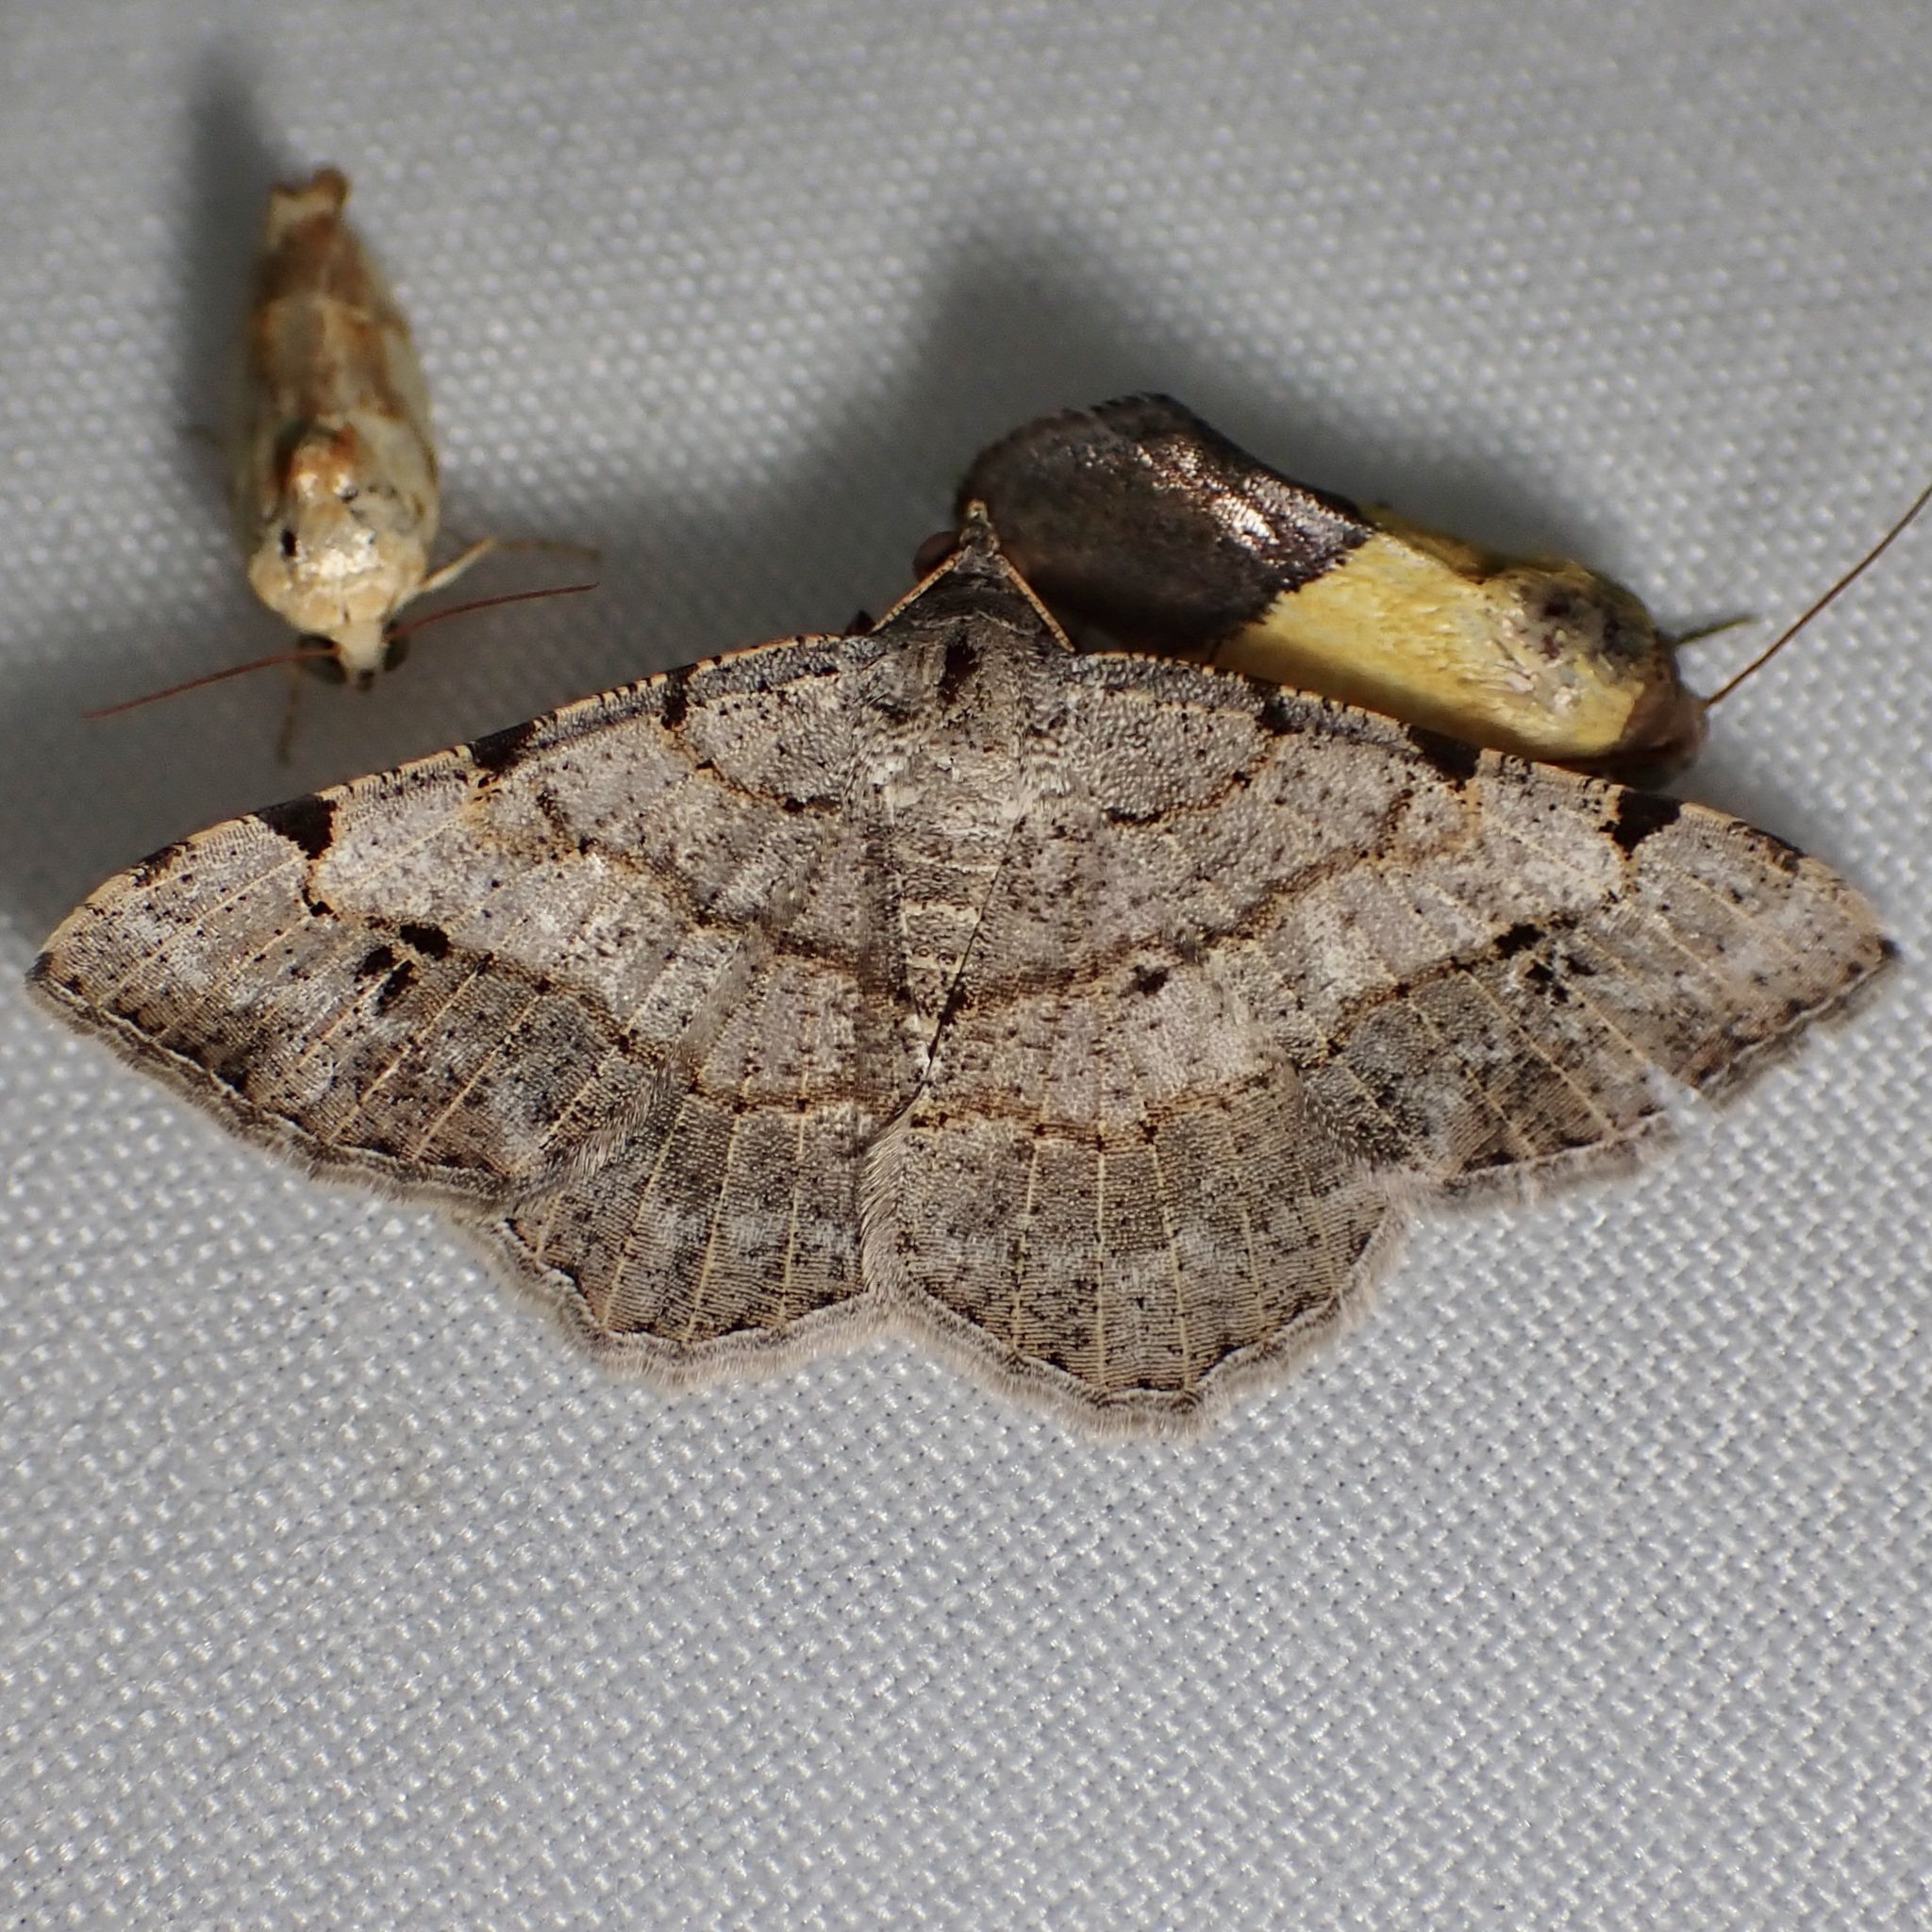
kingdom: Animalia
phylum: Arthropoda
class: Insecta
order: Lepidoptera
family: Geometridae
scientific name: Geometridae
